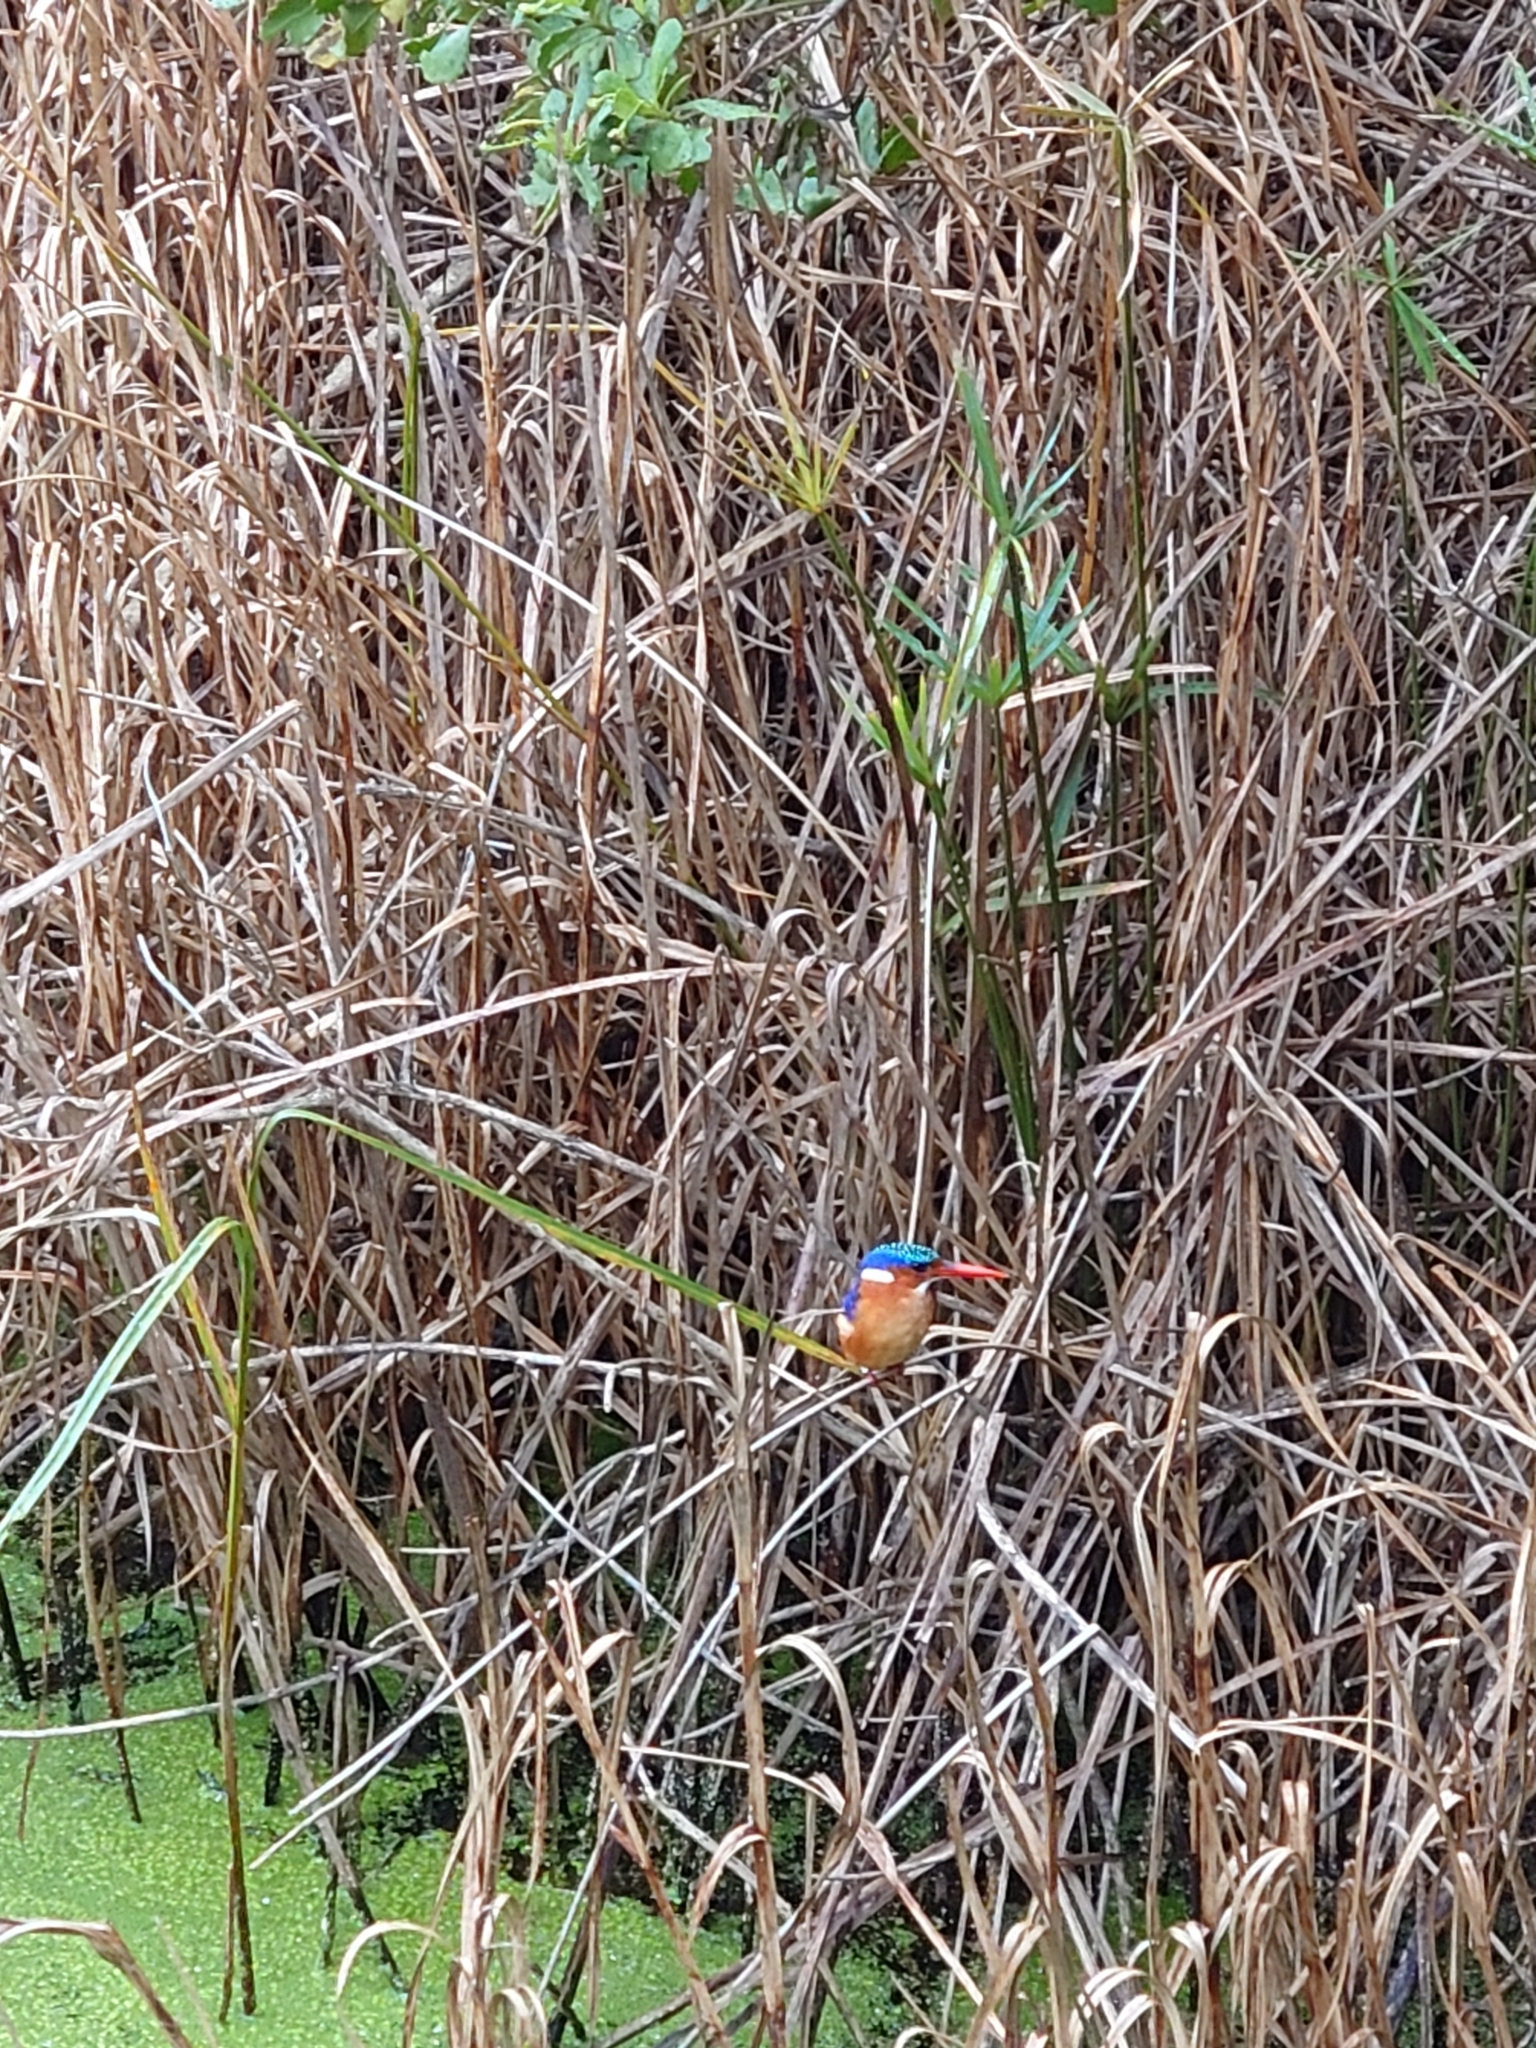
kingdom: Animalia
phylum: Chordata
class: Aves
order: Coraciiformes
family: Alcedinidae
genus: Corythornis
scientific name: Corythornis cristatus
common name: Malachite kingfisher
